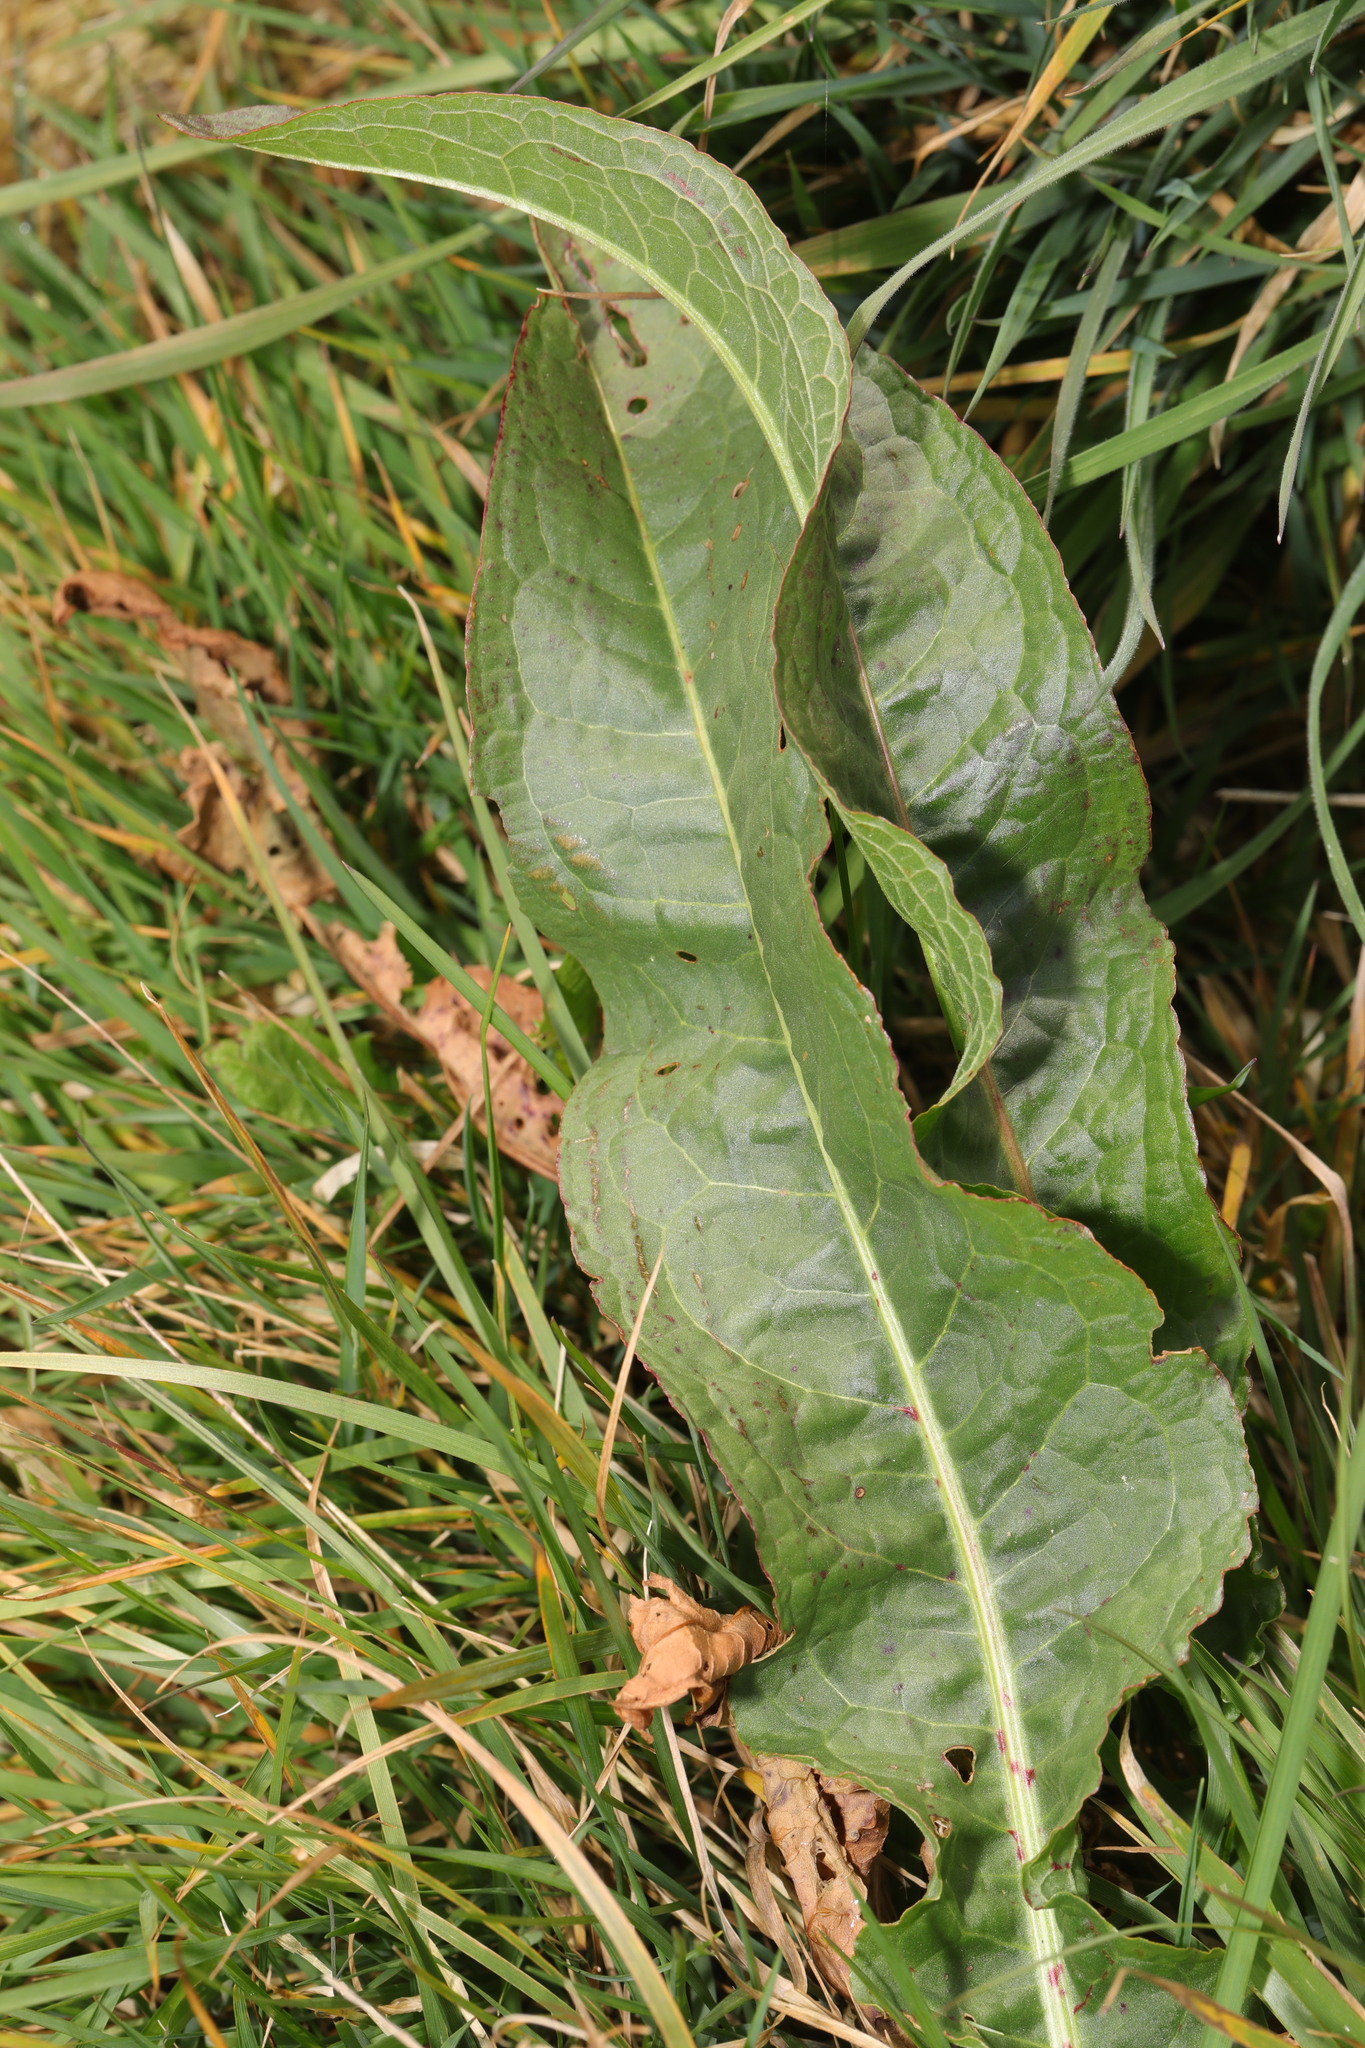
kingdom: Plantae
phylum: Tracheophyta
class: Magnoliopsida
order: Caryophyllales
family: Polygonaceae
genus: Rumex
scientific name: Rumex crispus
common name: Curled dock
